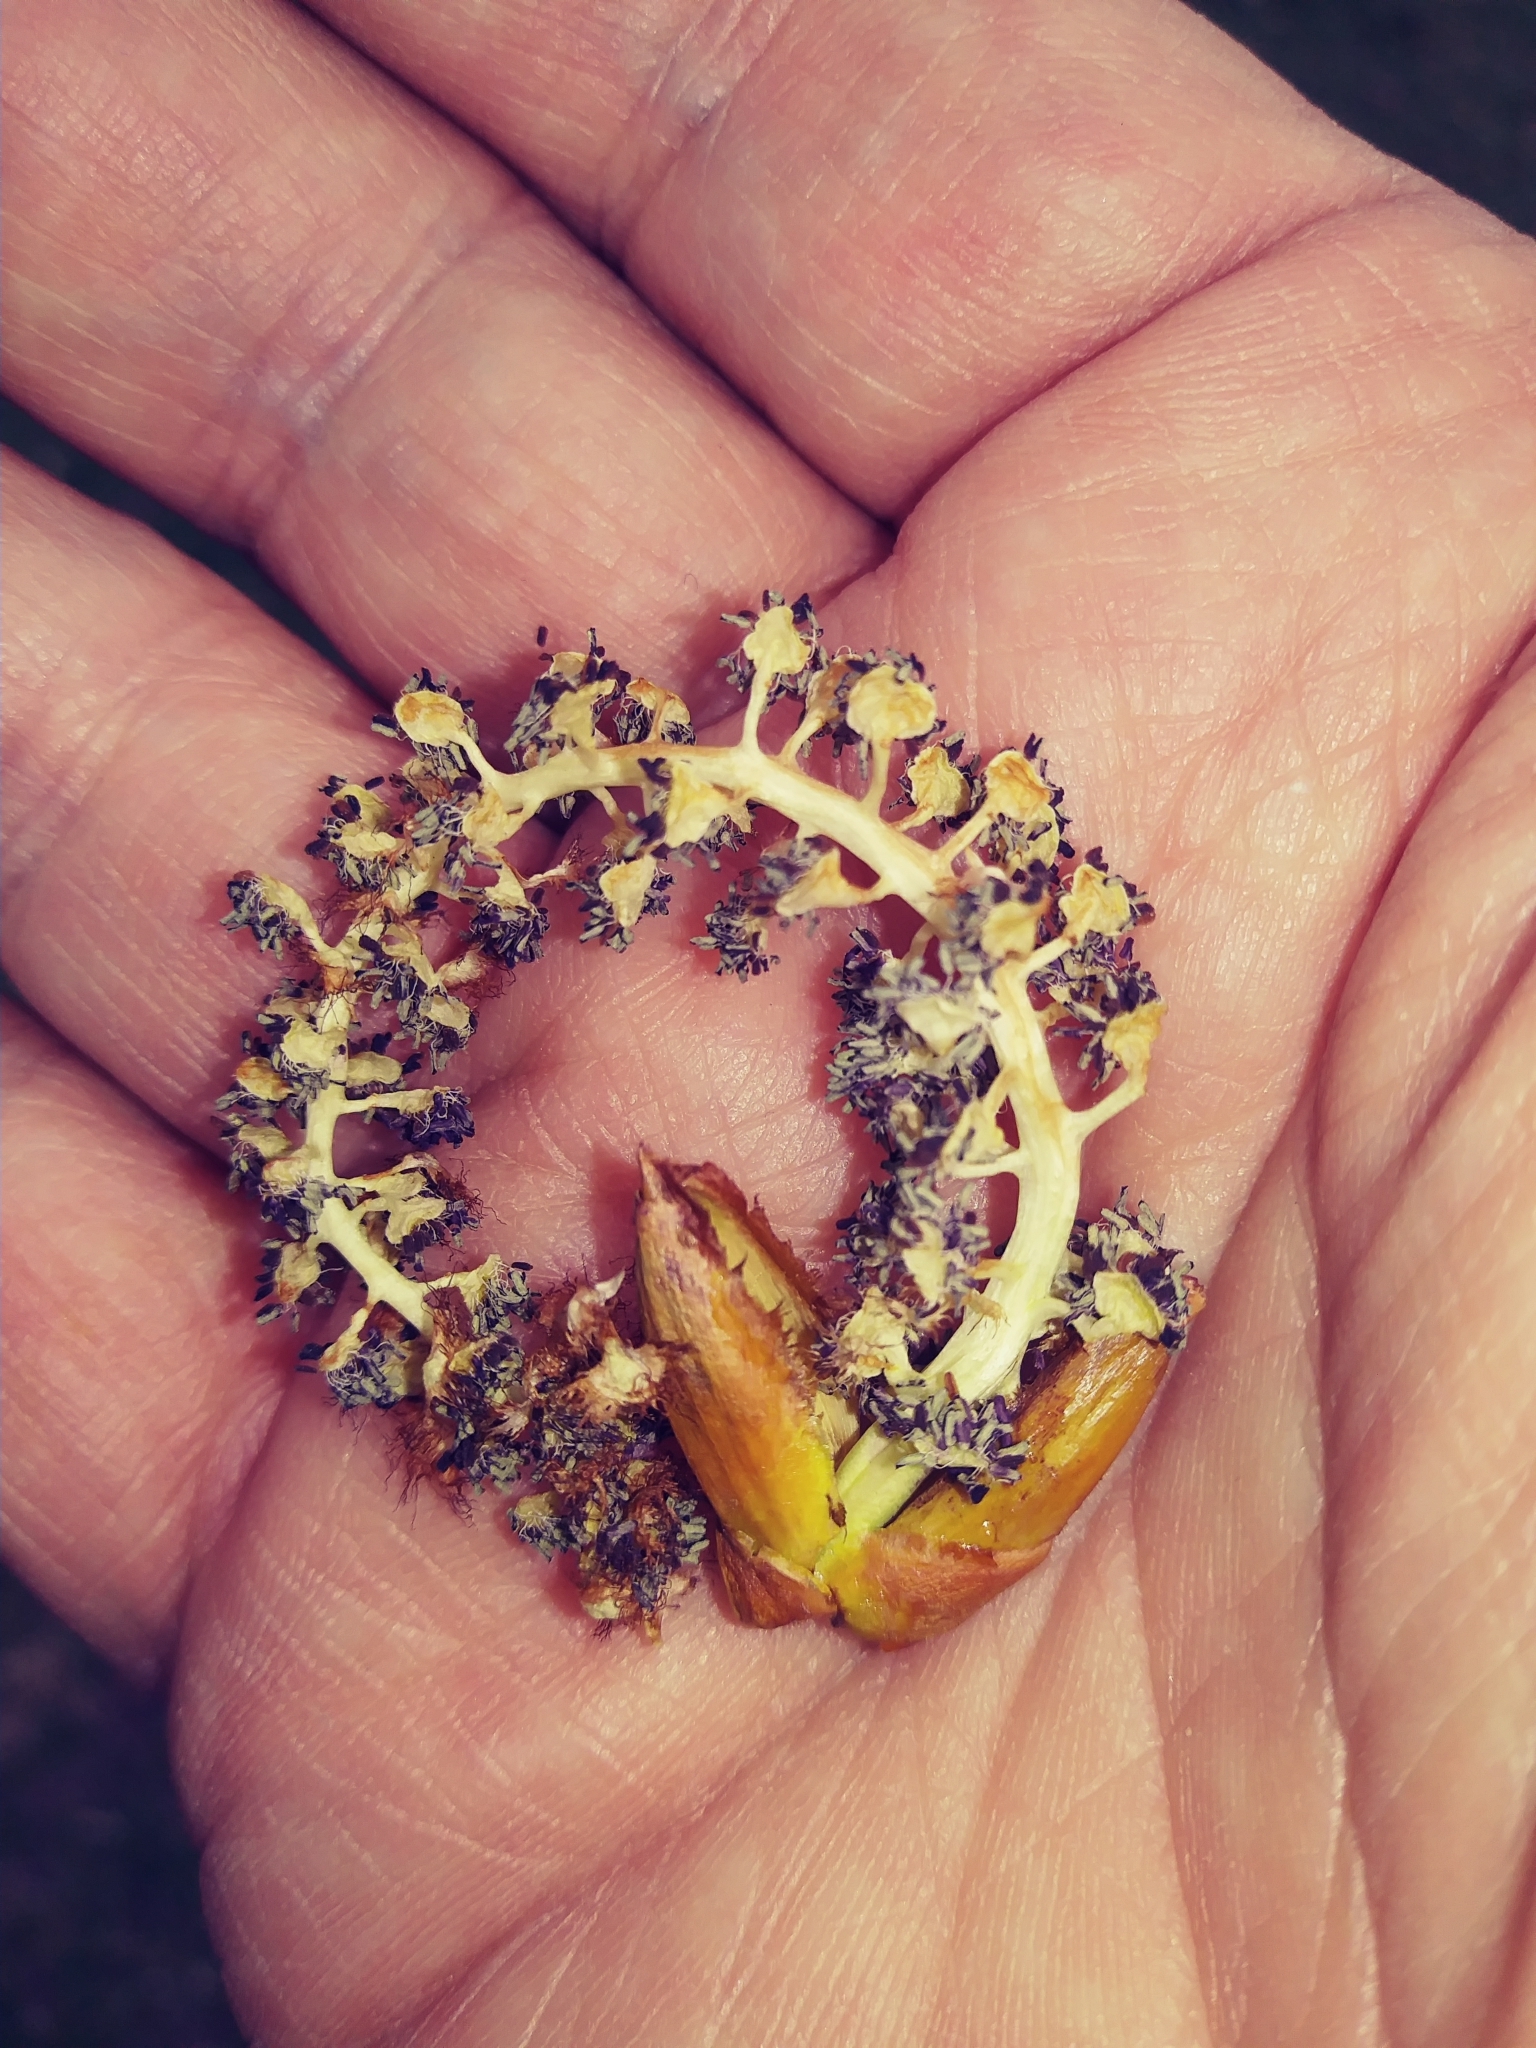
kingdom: Plantae
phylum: Tracheophyta
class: Magnoliopsida
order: Malpighiales
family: Salicaceae
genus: Populus
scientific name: Populus deltoides
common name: Eastern cottonwood
